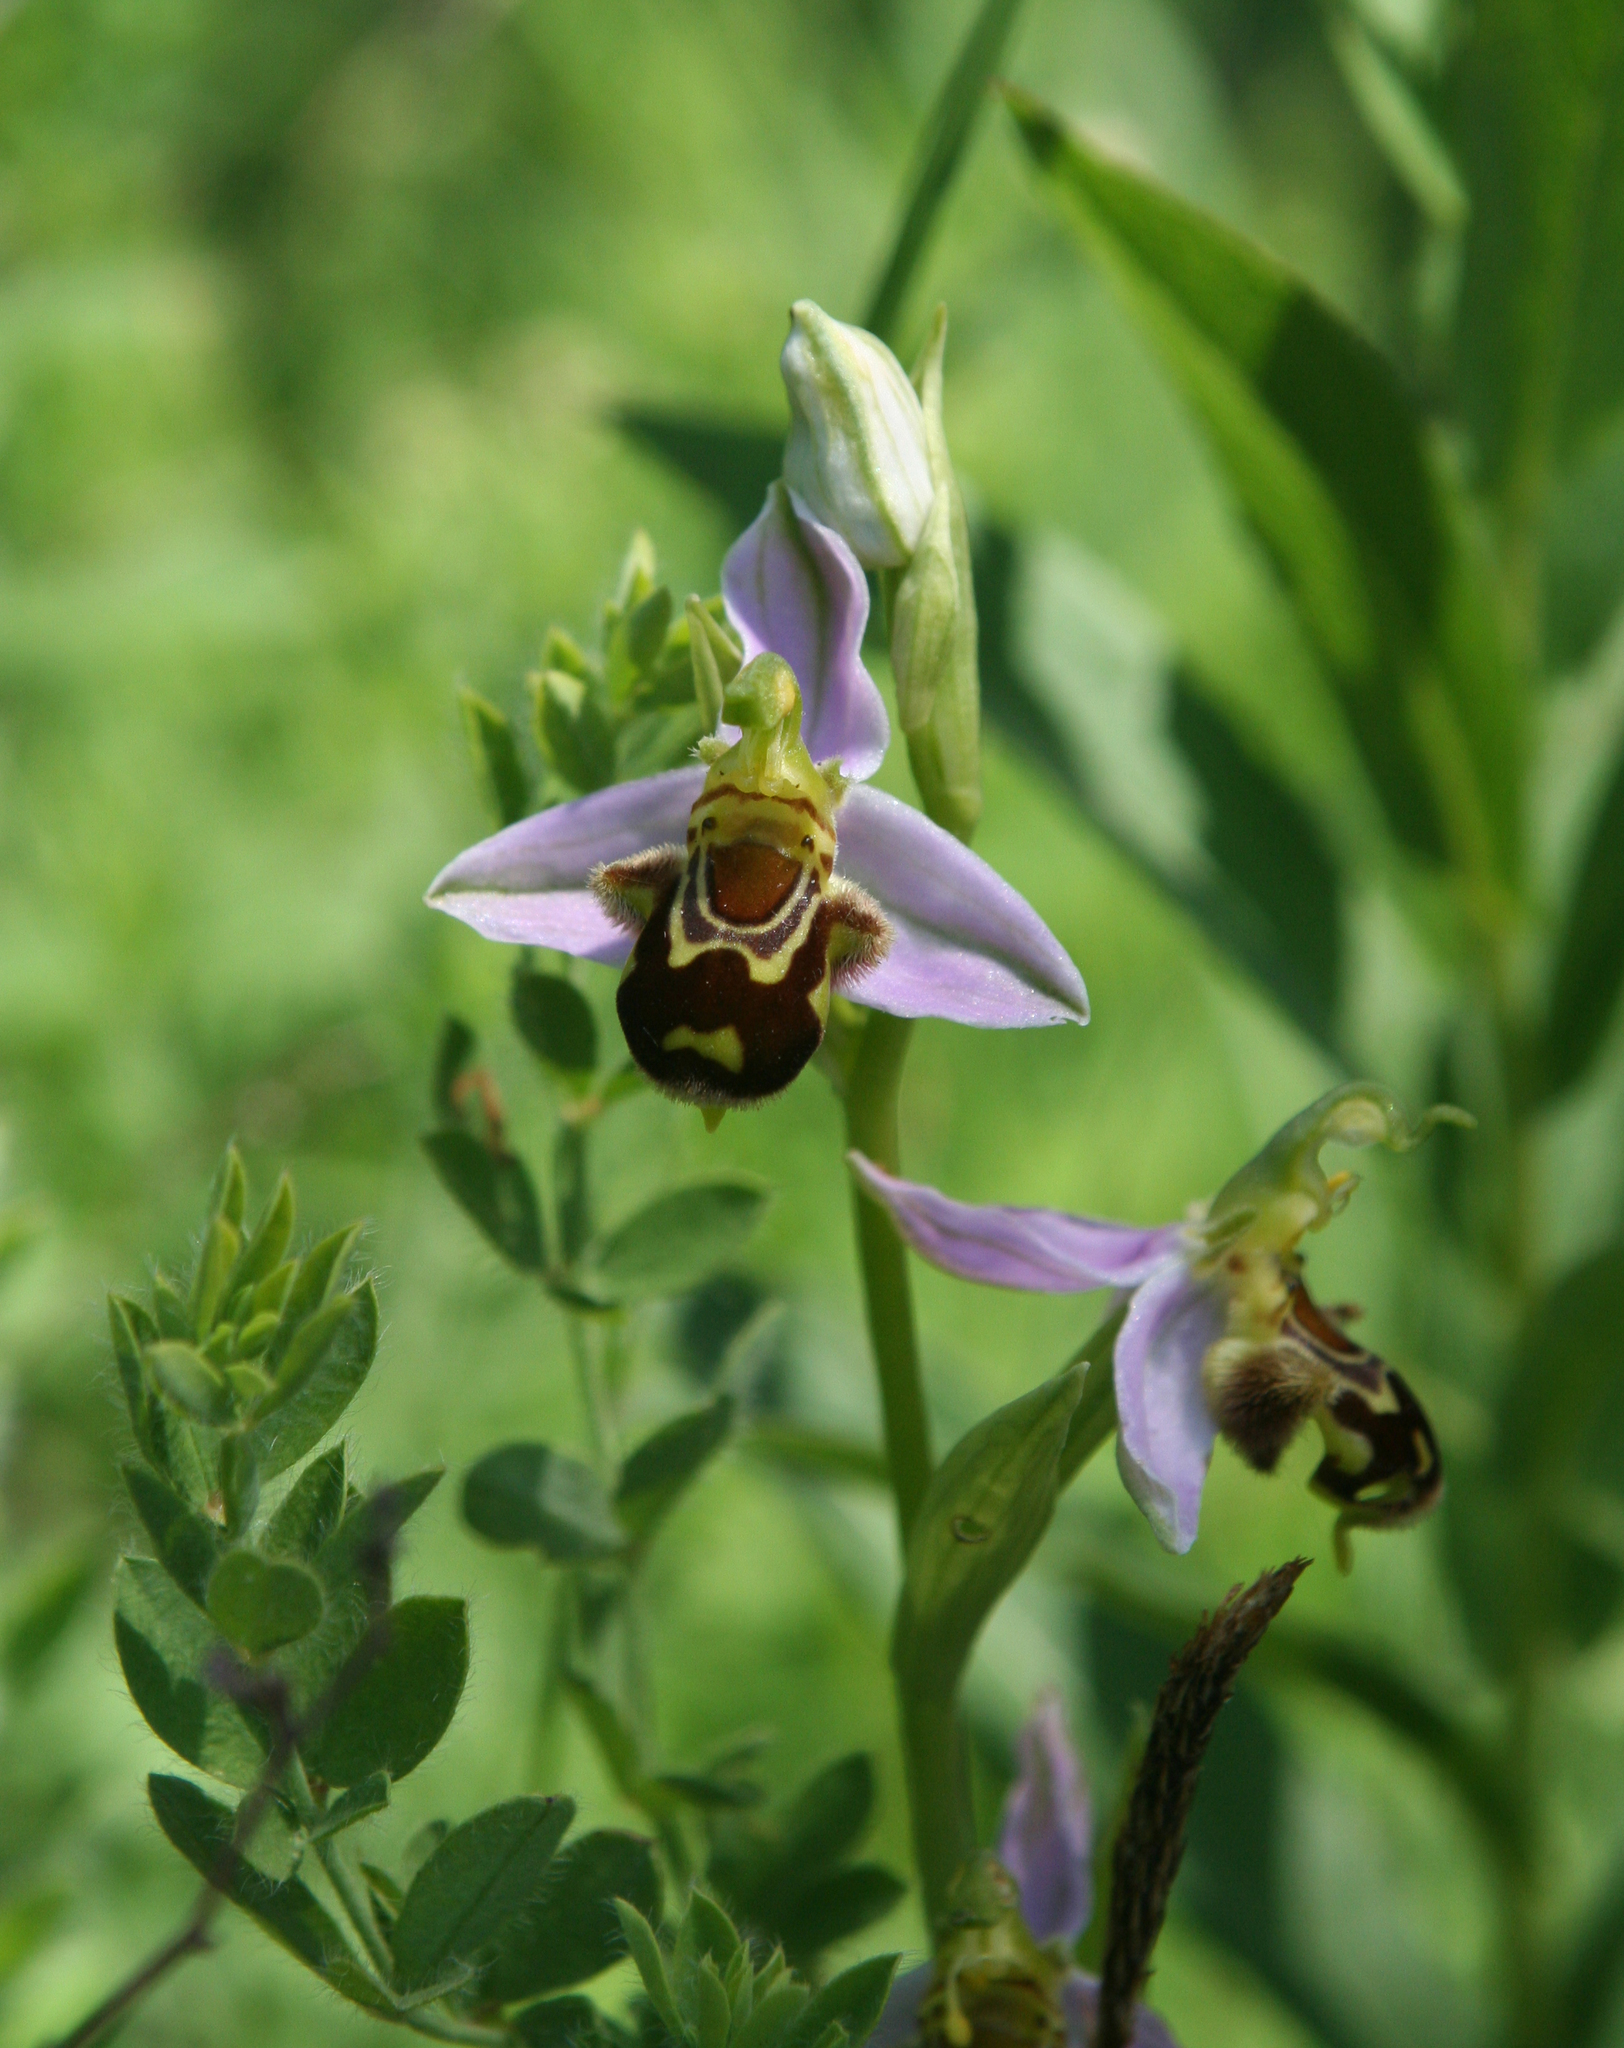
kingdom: Plantae
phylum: Tracheophyta
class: Liliopsida
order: Asparagales
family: Orchidaceae
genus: Ophrys
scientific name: Ophrys apifera
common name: Bee orchid
